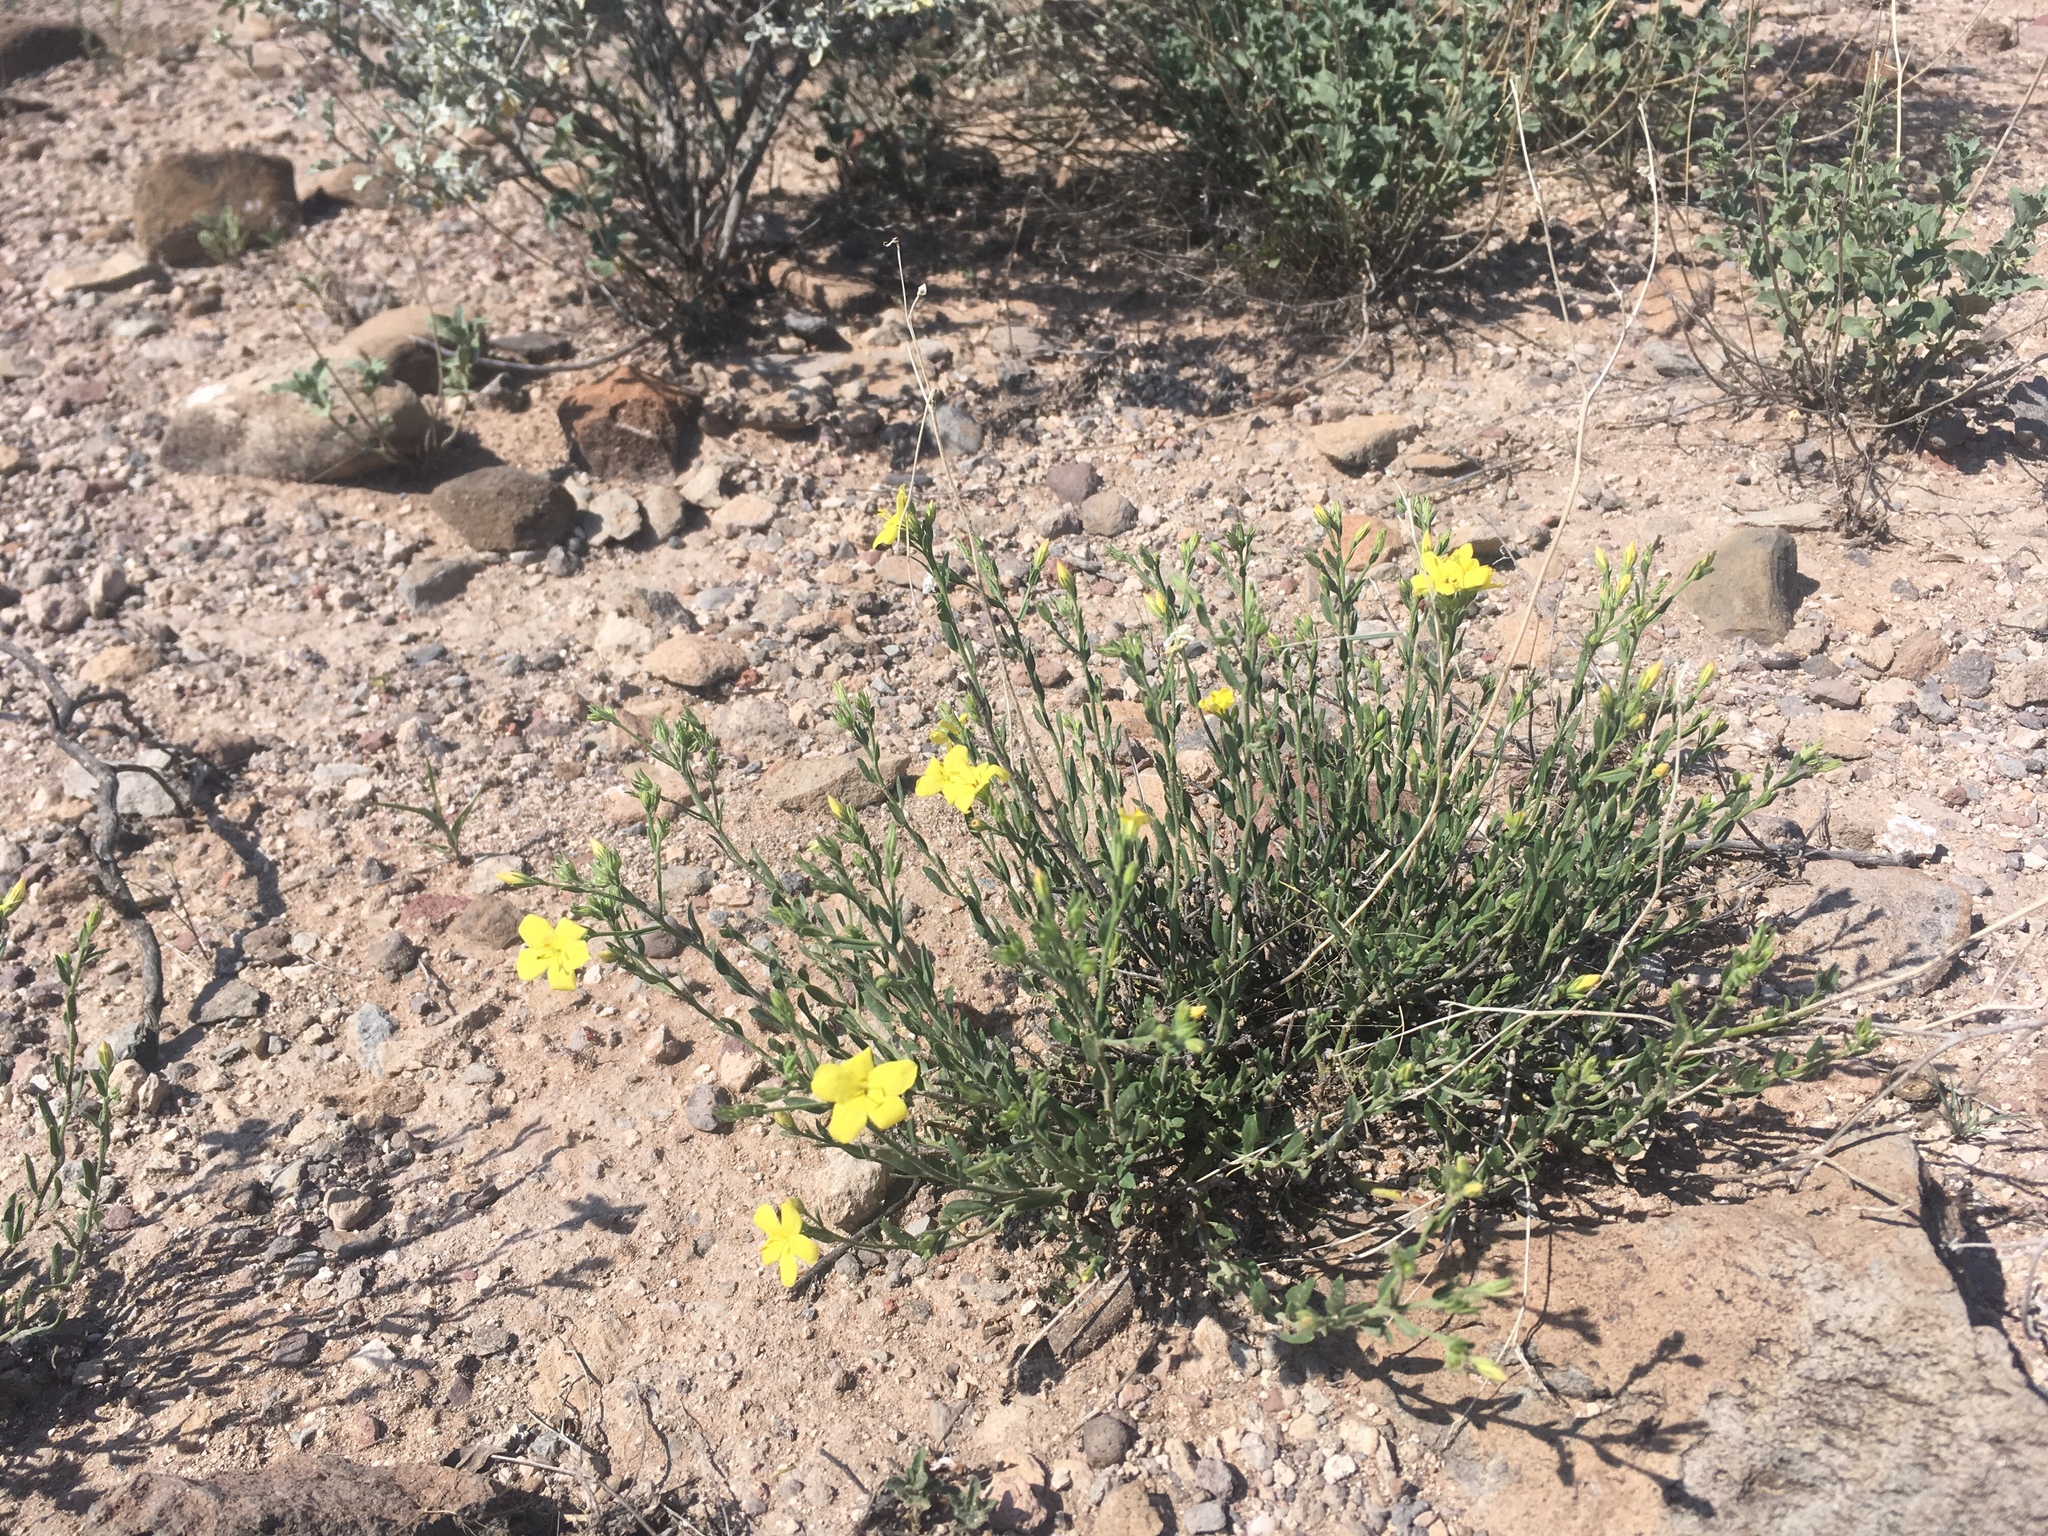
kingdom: Plantae
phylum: Tracheophyta
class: Magnoliopsida
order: Lamiales
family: Oleaceae
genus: Menodora
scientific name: Menodora scabra
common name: Rough menodora
